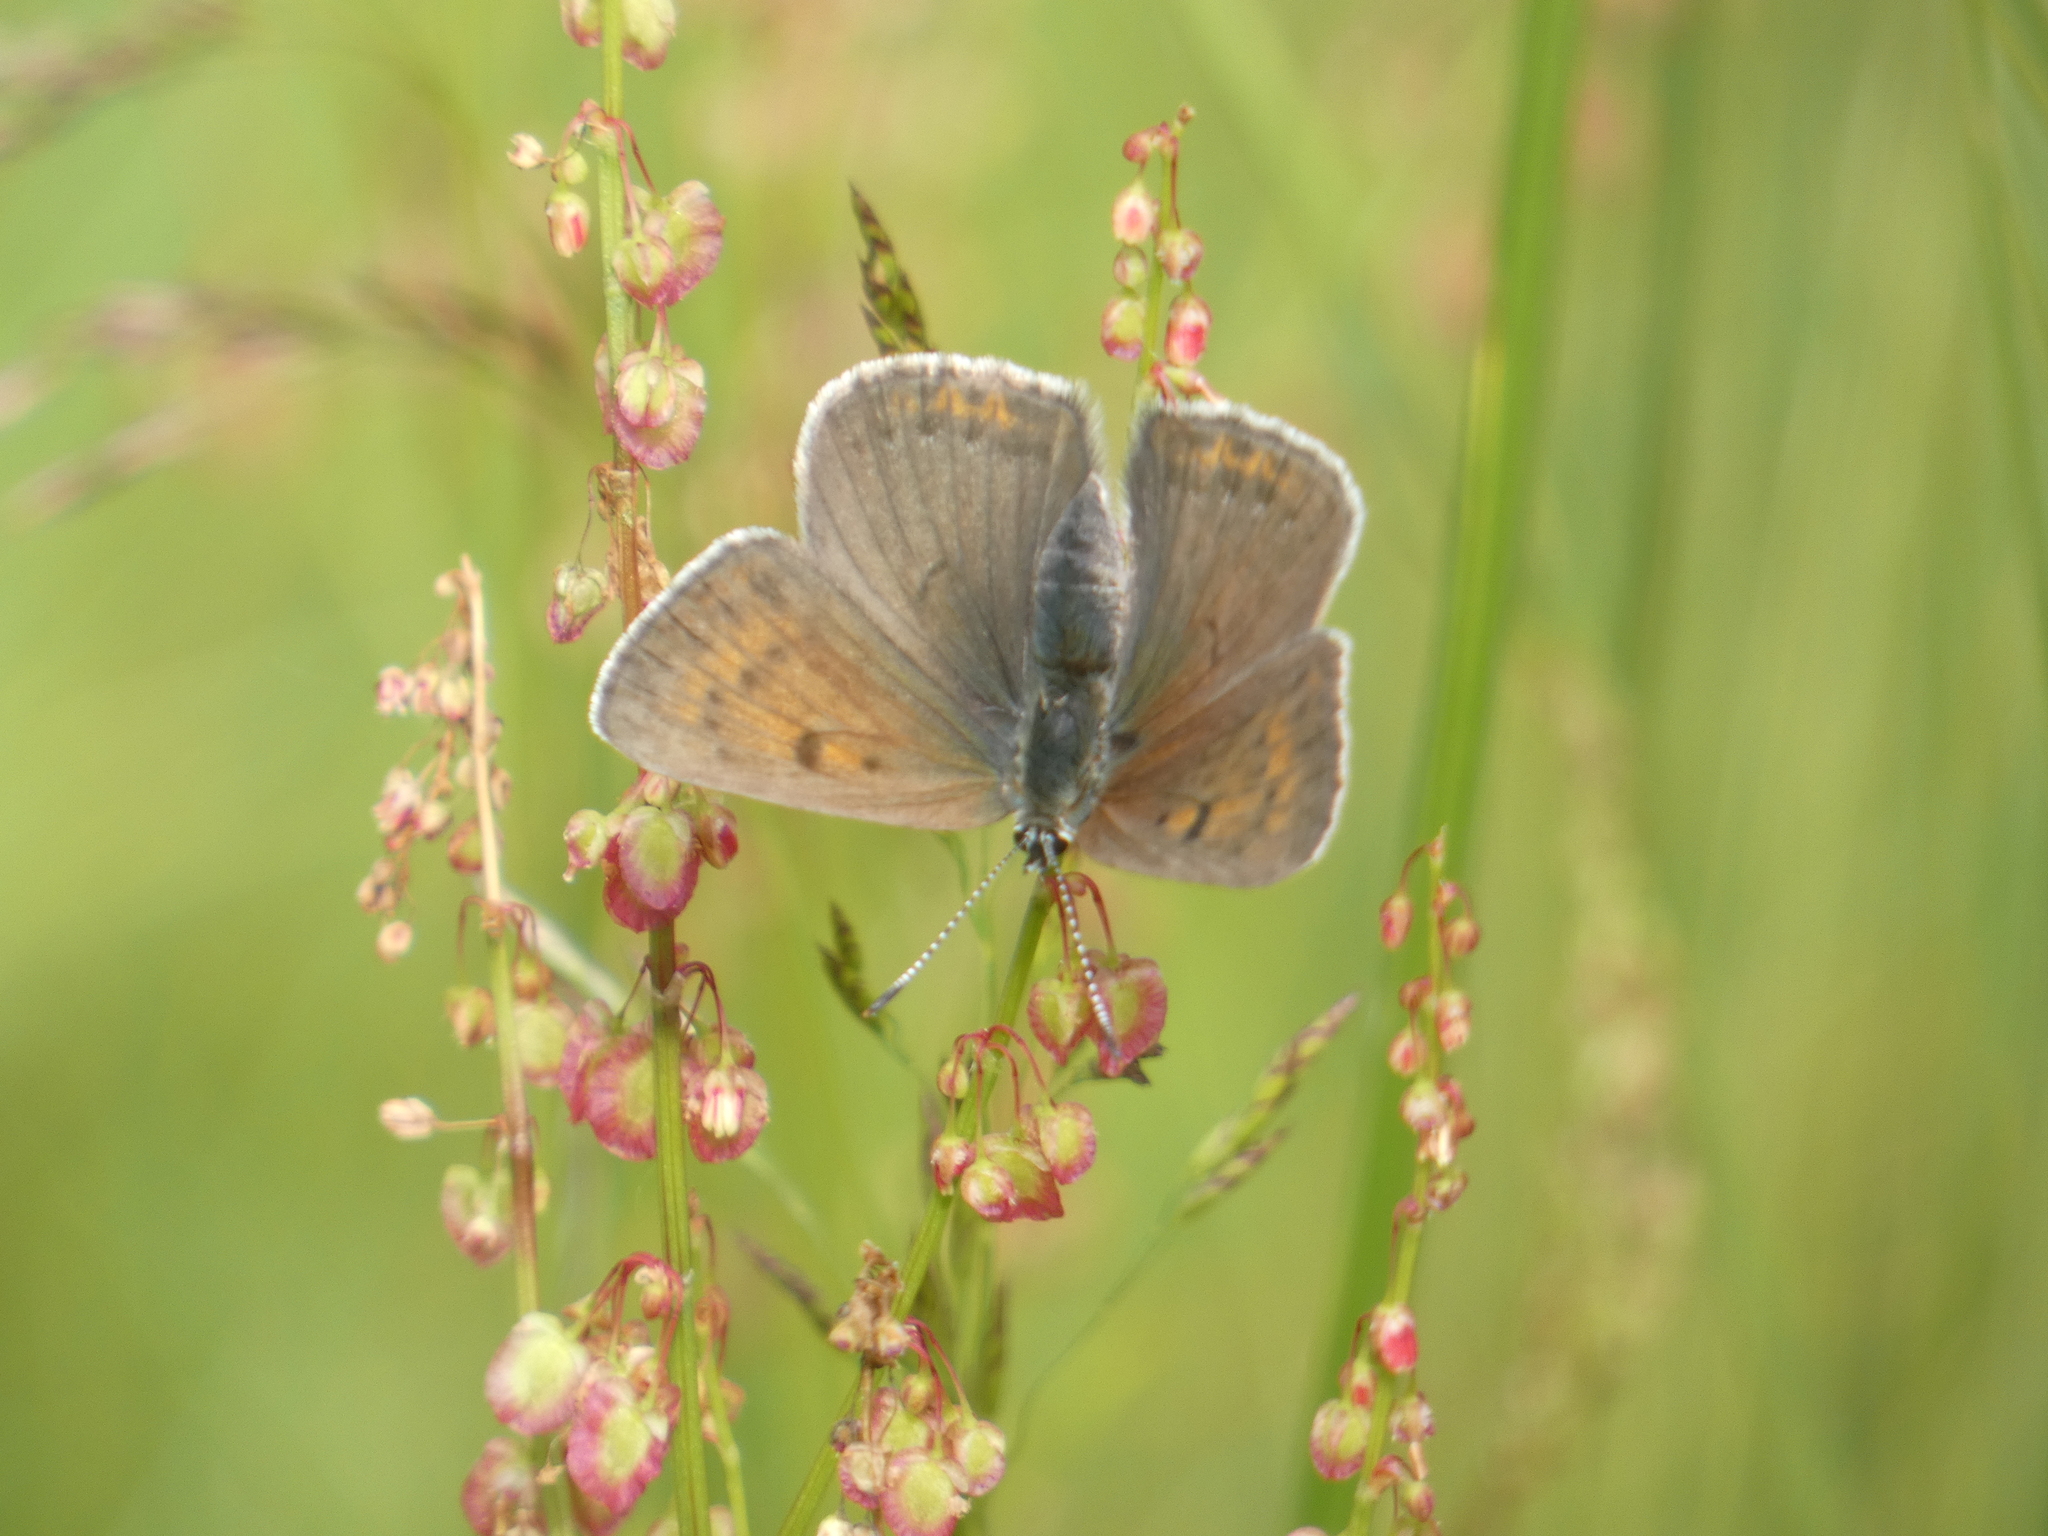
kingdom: Animalia
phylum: Arthropoda
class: Insecta
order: Lepidoptera
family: Lycaenidae
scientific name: Lycaenidae
